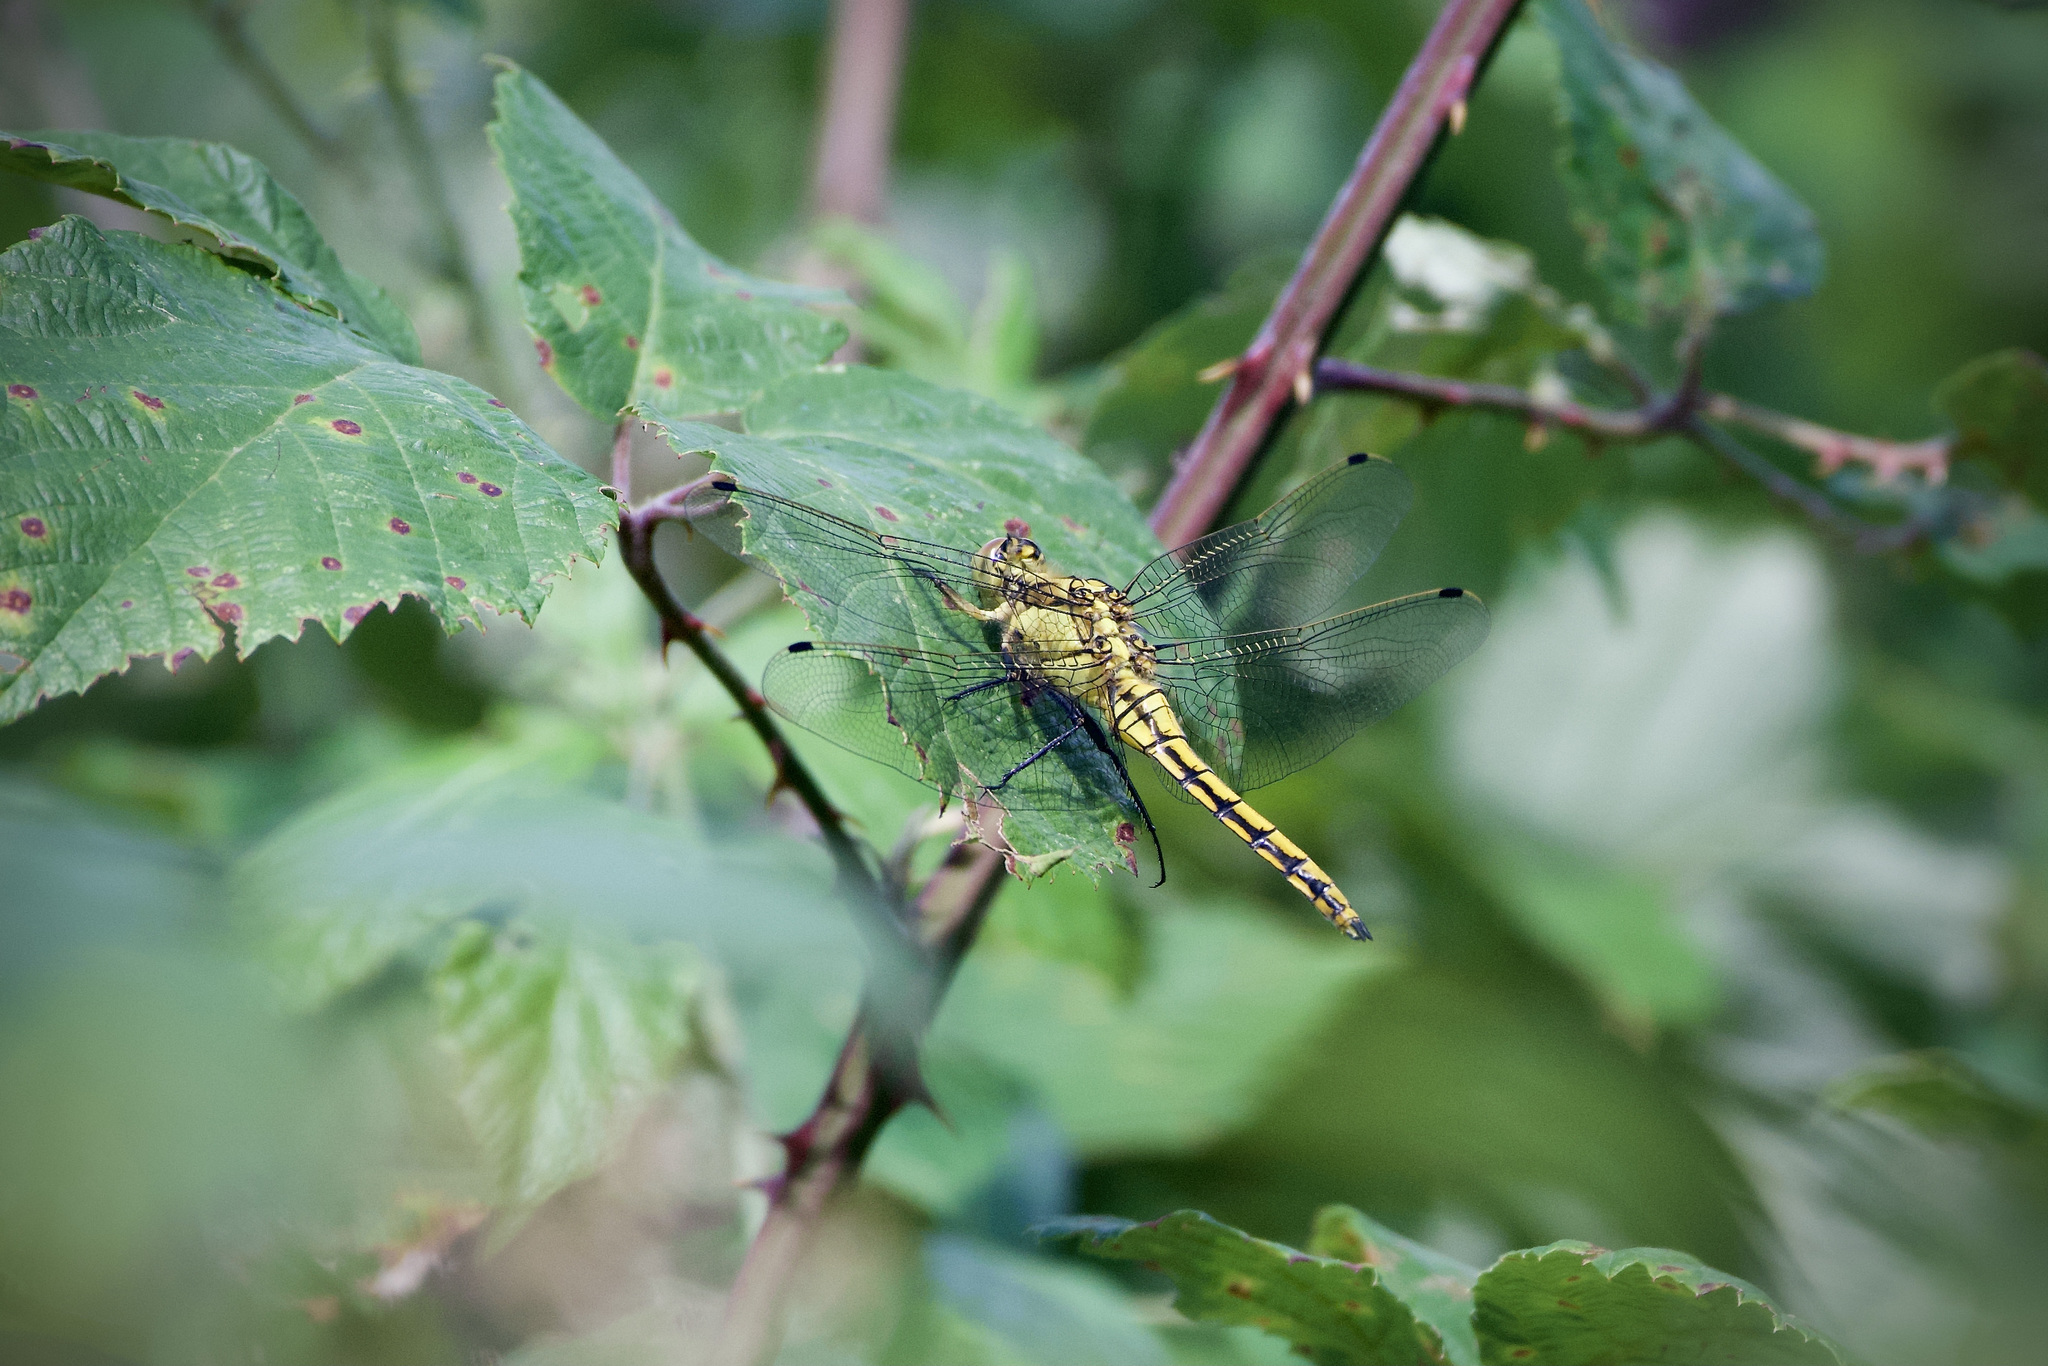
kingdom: Animalia
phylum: Arthropoda
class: Insecta
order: Odonata
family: Libellulidae
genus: Orthetrum
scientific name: Orthetrum cancellatum
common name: Black-tailed skimmer
